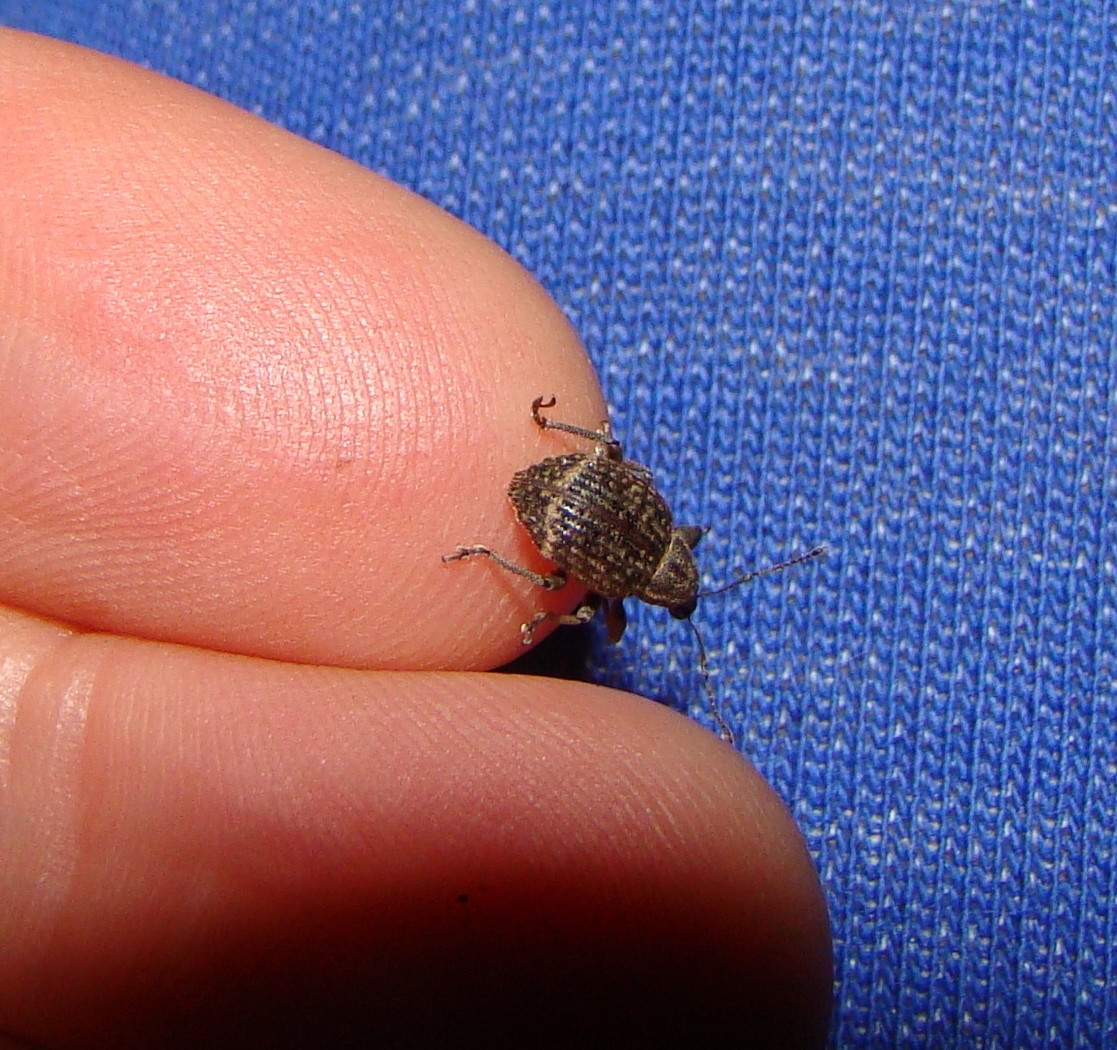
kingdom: Animalia
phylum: Arthropoda
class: Insecta
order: Coleoptera
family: Curculionidae
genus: Phlyctinus
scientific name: Phlyctinus callosus
